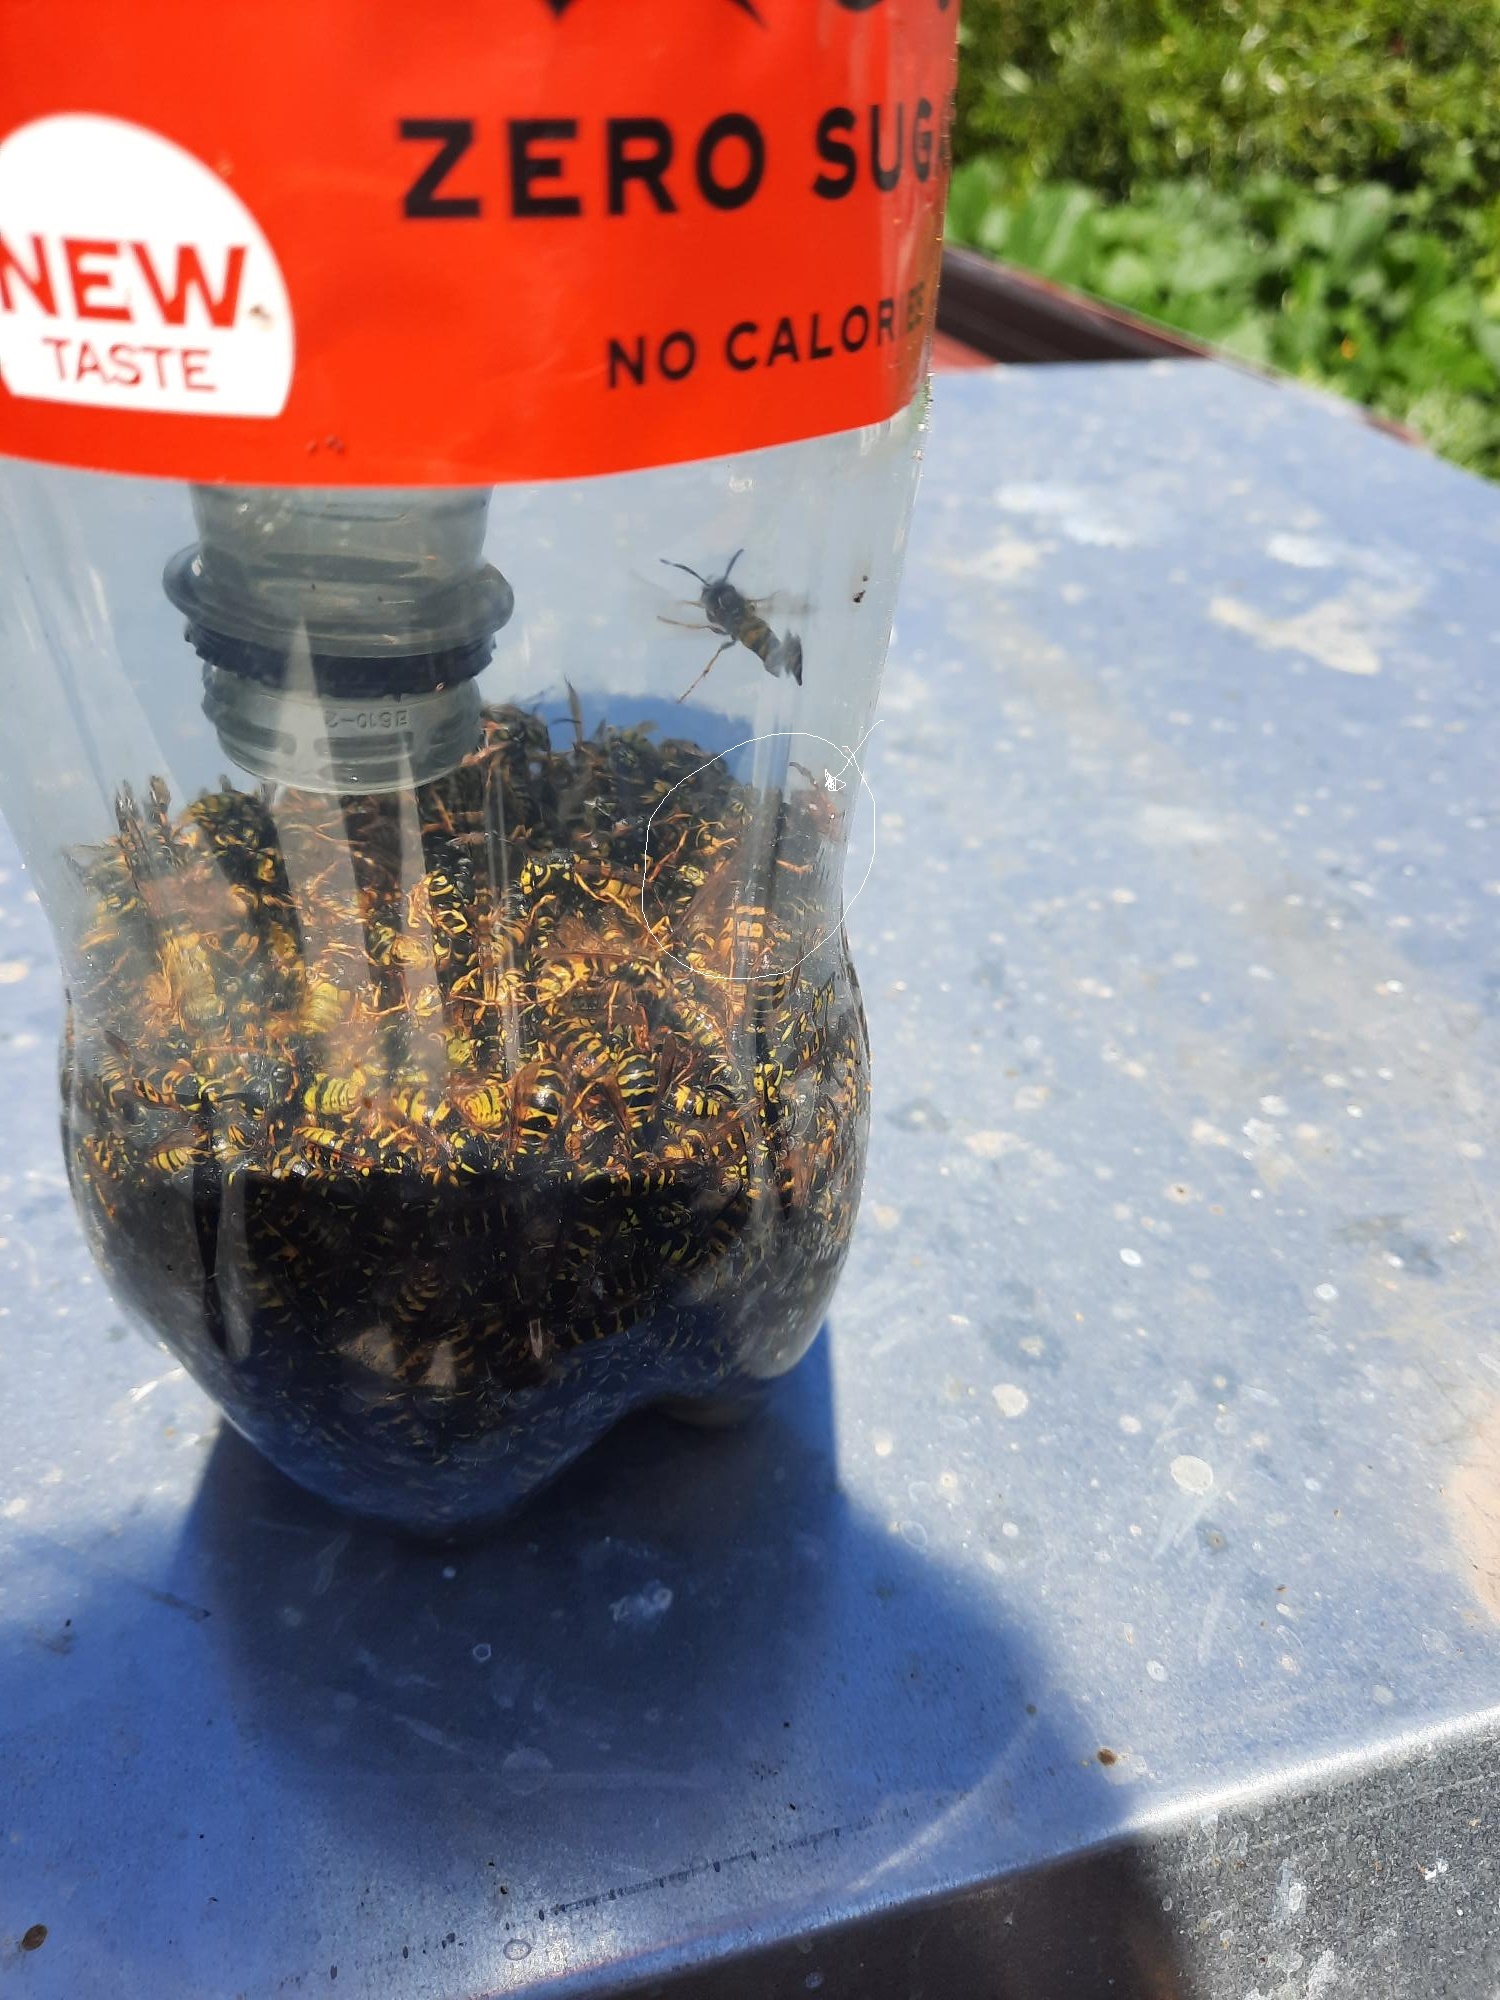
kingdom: Animalia
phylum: Arthropoda
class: Insecta
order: Hymenoptera
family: Vespidae
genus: Vespa
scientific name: Vespa velutina
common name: Asian hornet
